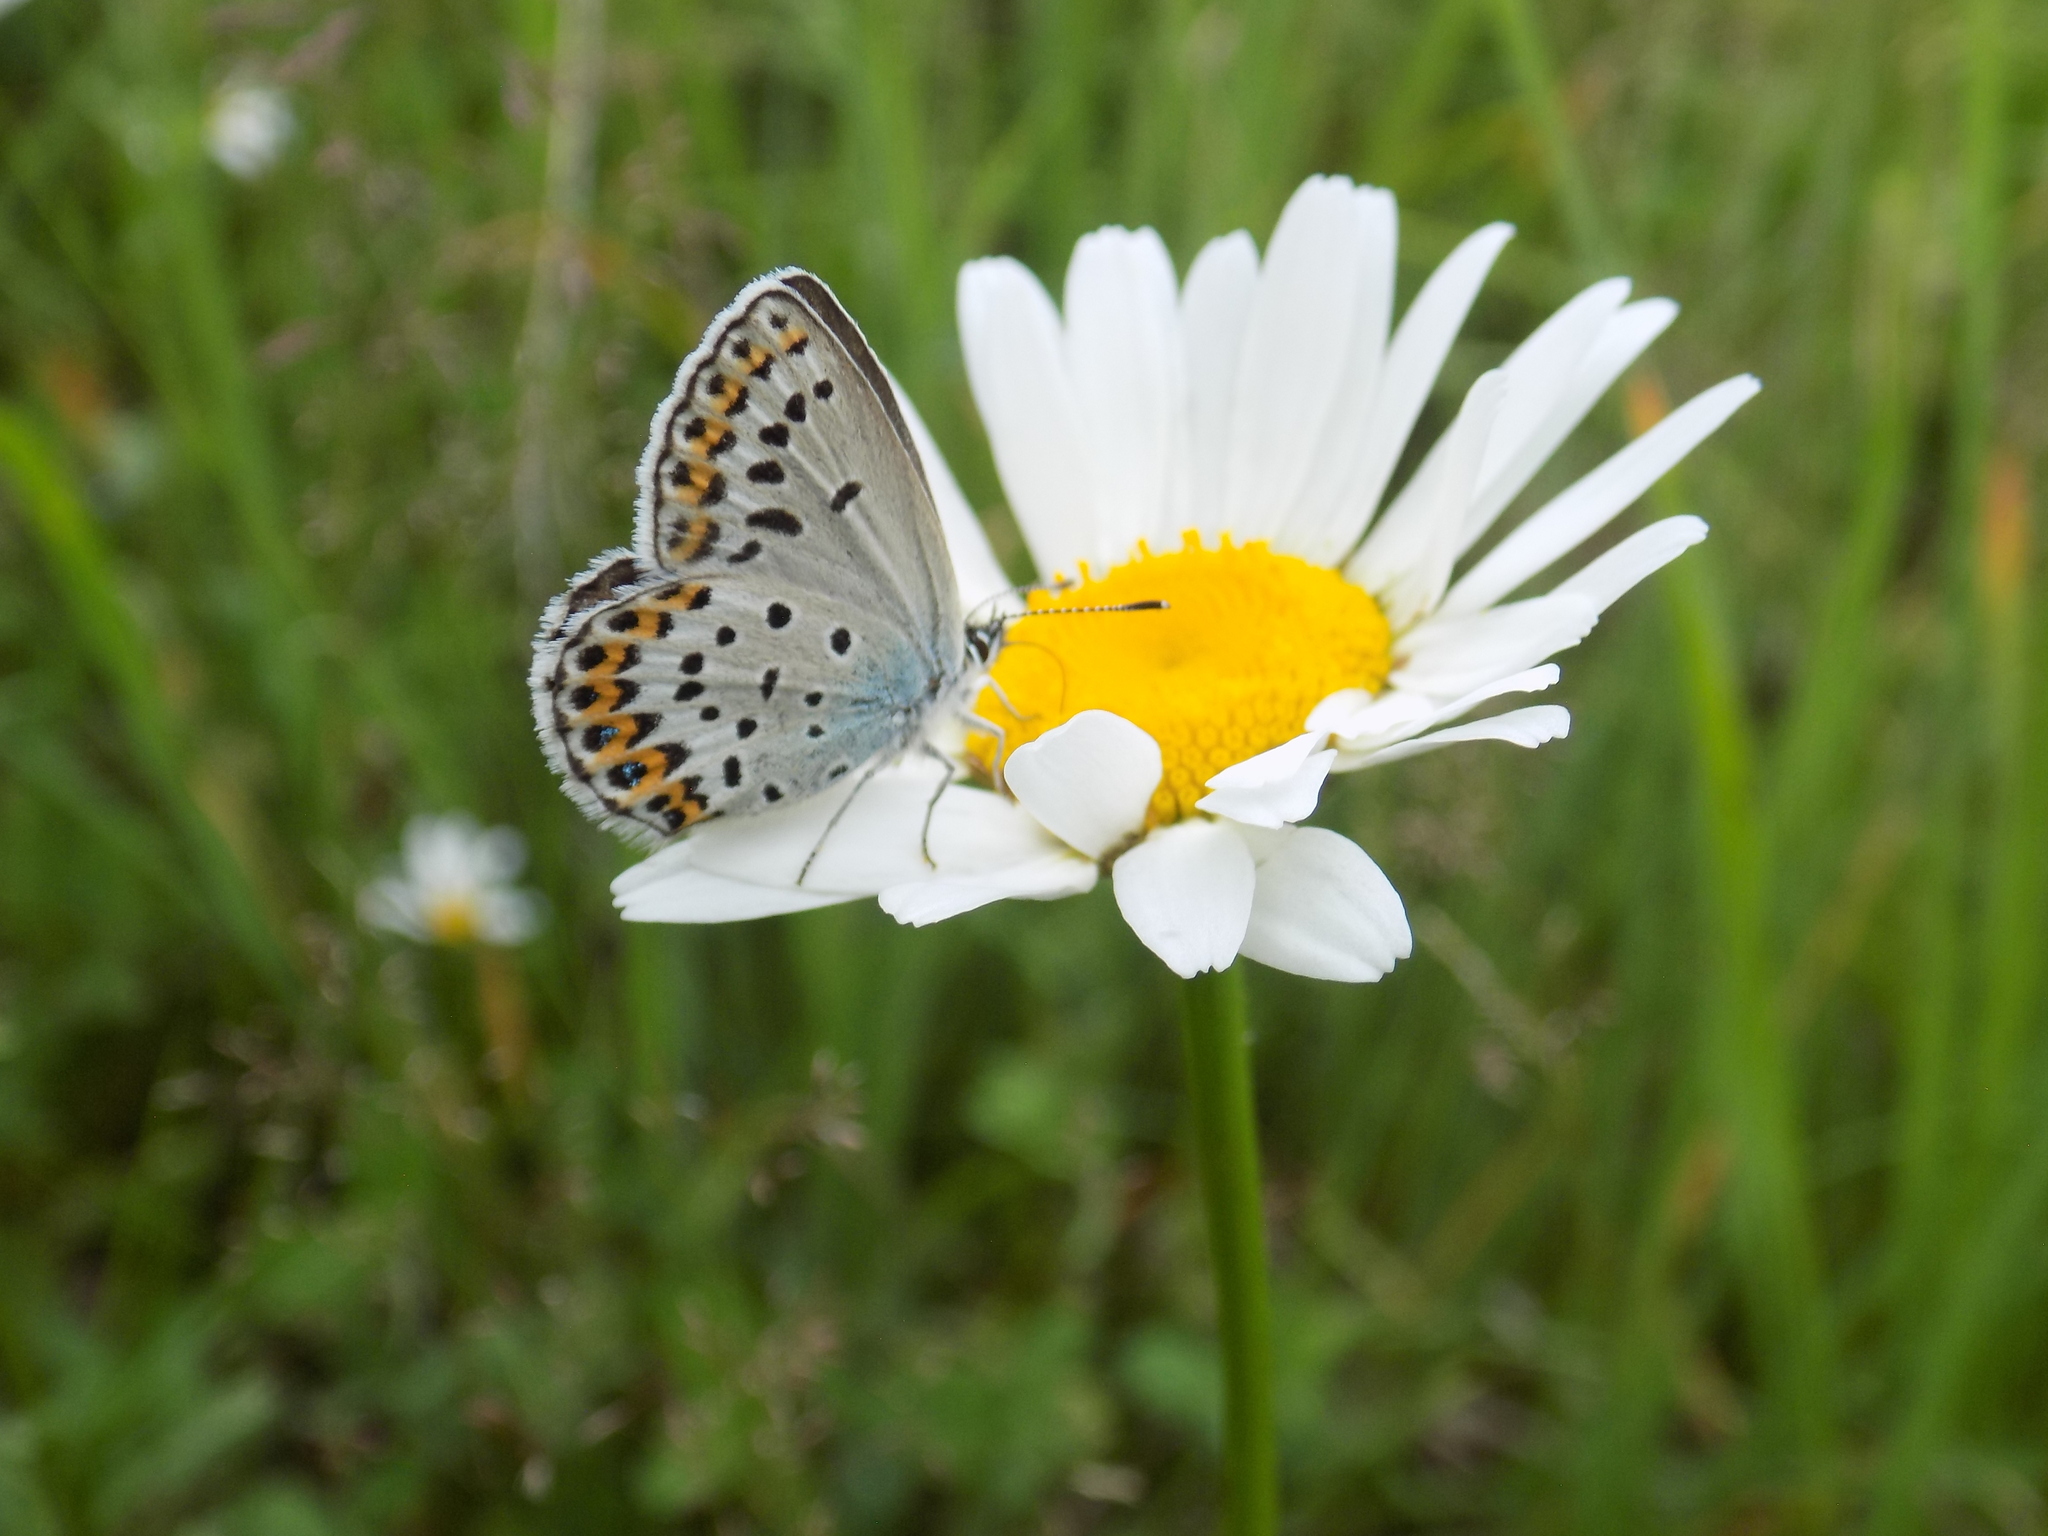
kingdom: Animalia
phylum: Arthropoda
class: Insecta
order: Lepidoptera
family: Lycaenidae
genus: Lycaeides
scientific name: Lycaeides idas
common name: Northern blue
